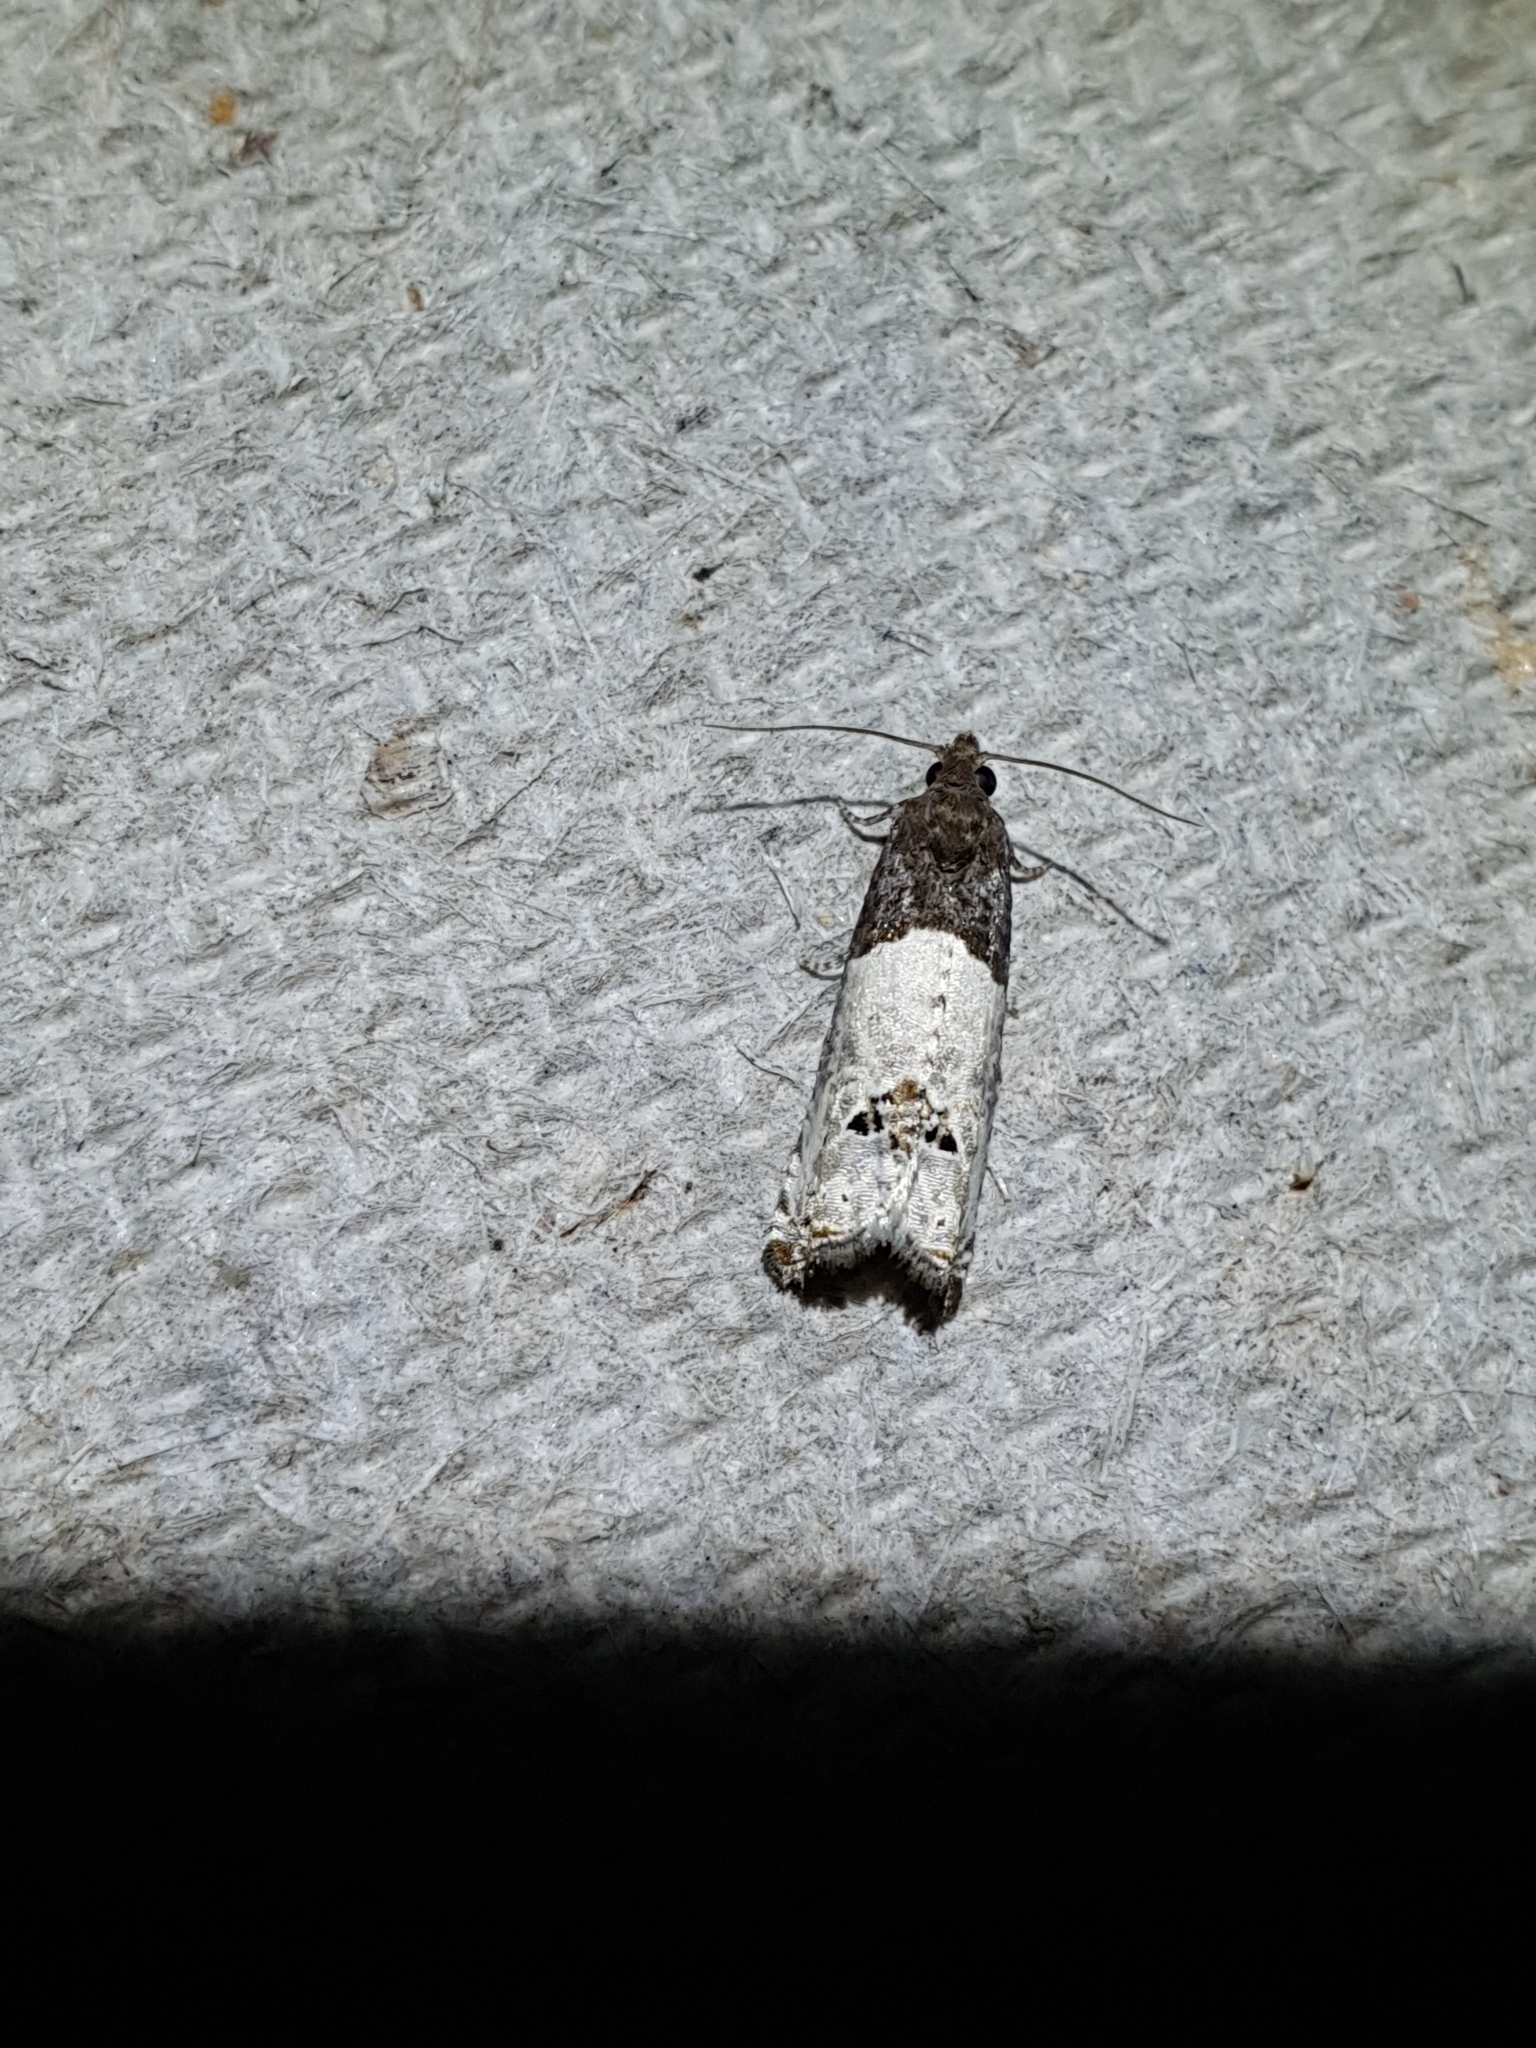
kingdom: Animalia
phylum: Arthropoda
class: Insecta
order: Lepidoptera
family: Tortricidae
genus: Epiblema
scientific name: Epiblema aquana
